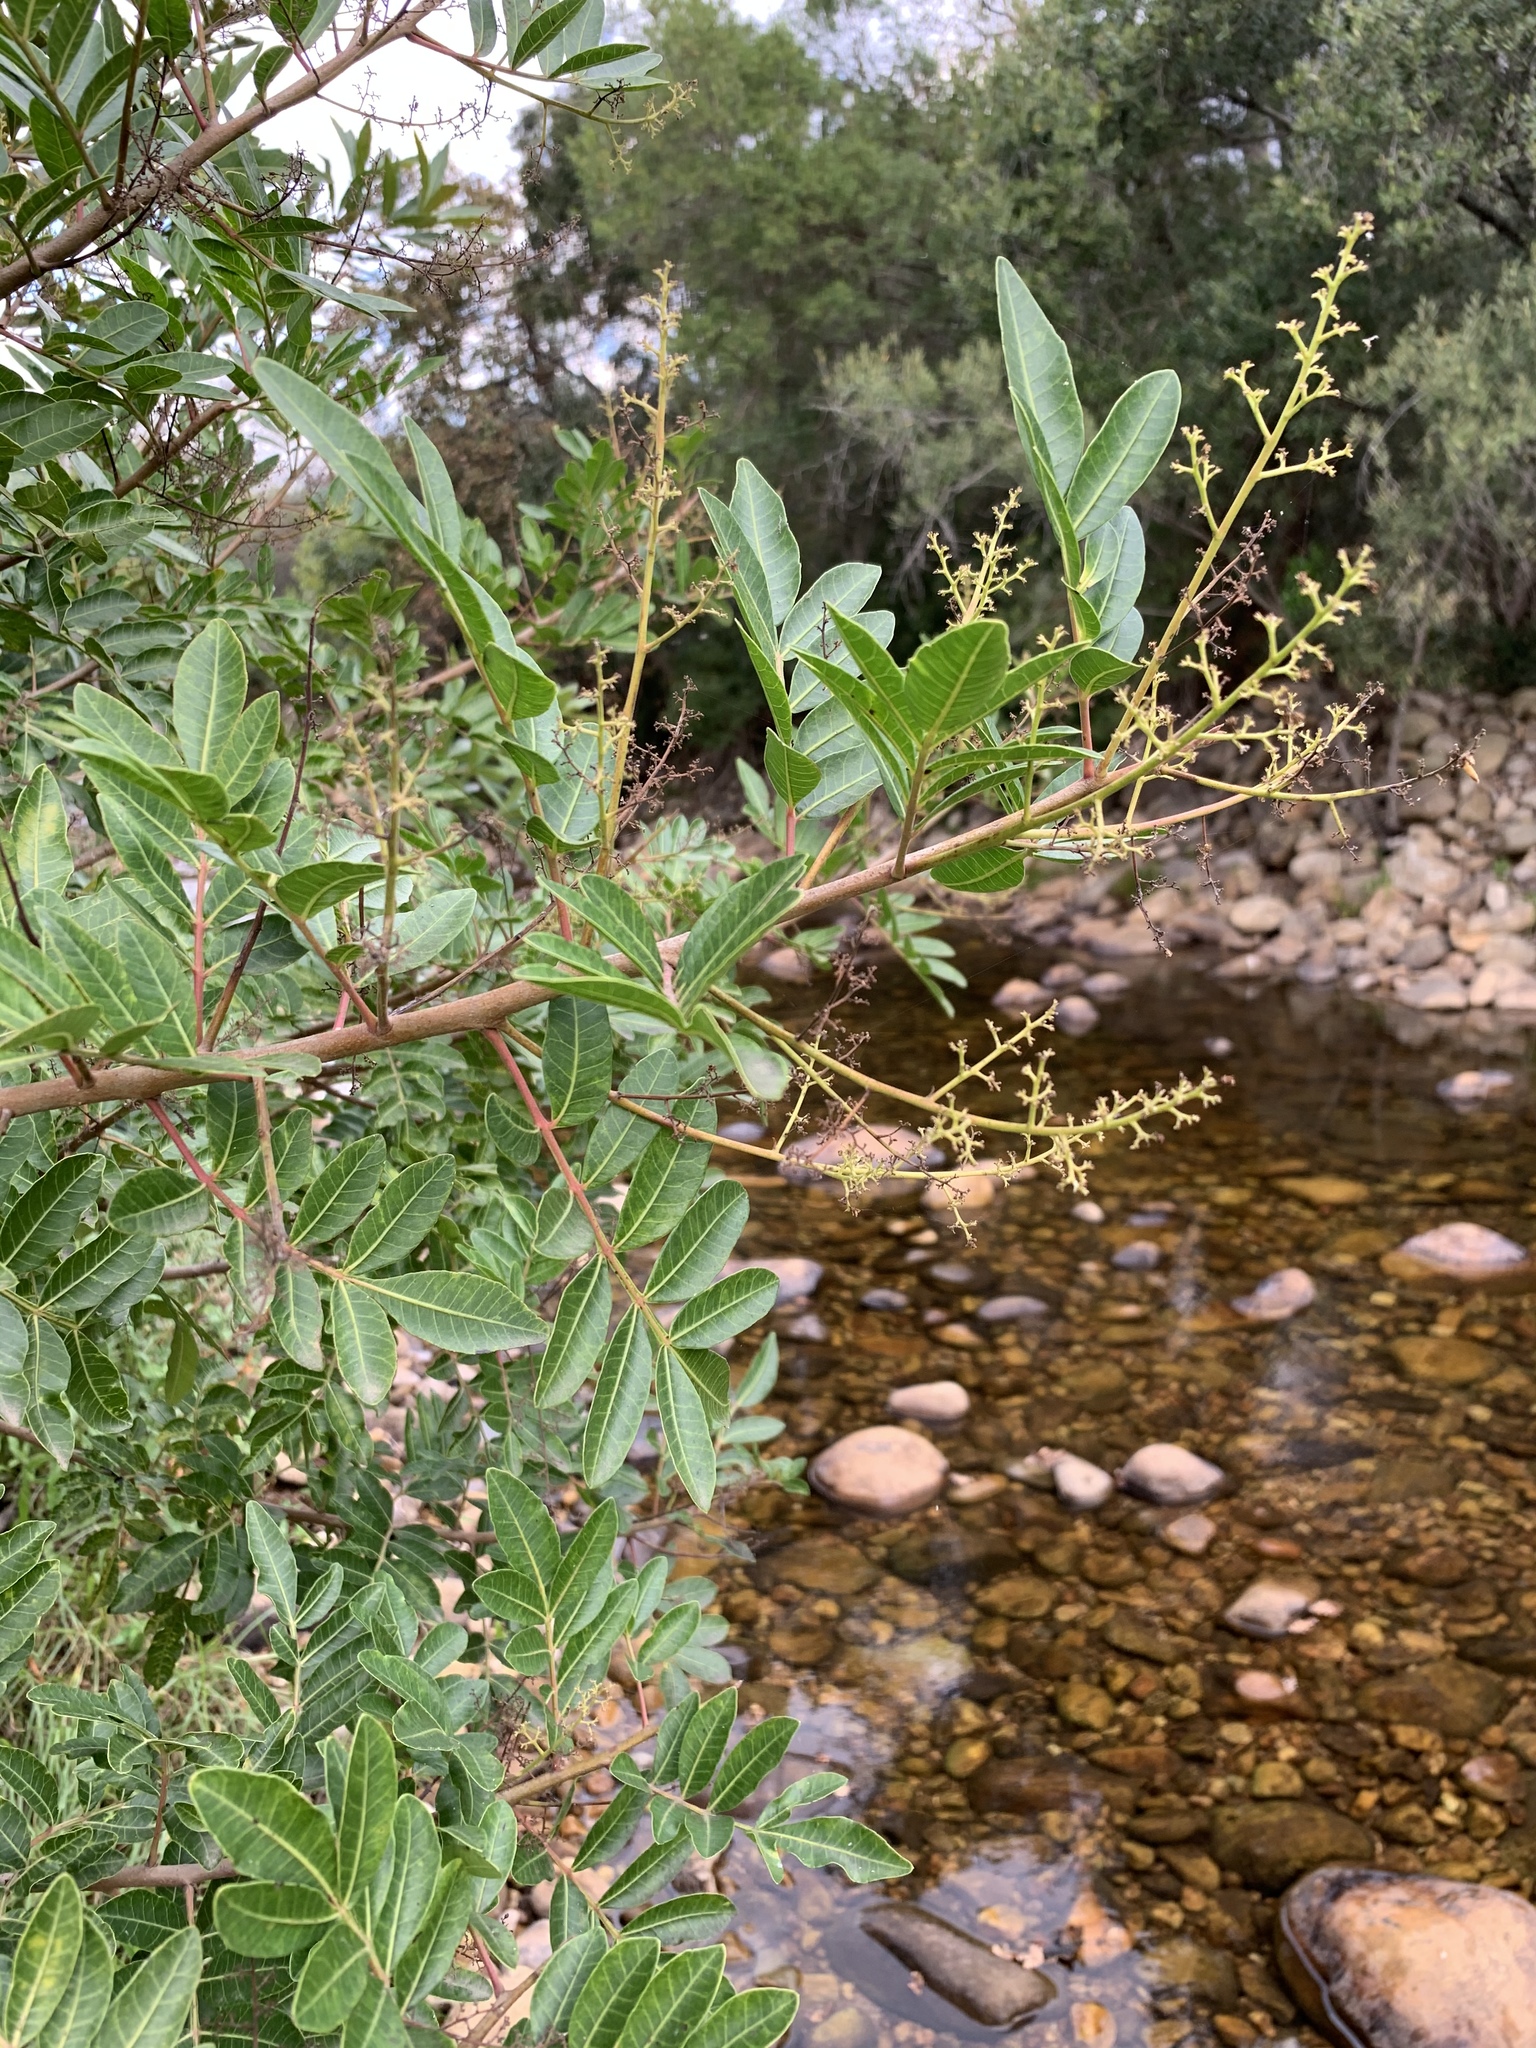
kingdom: Plantae
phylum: Tracheophyta
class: Magnoliopsida
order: Sapindales
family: Anacardiaceae
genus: Schinus
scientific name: Schinus terebinthifolia
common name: Brazilian peppertree
